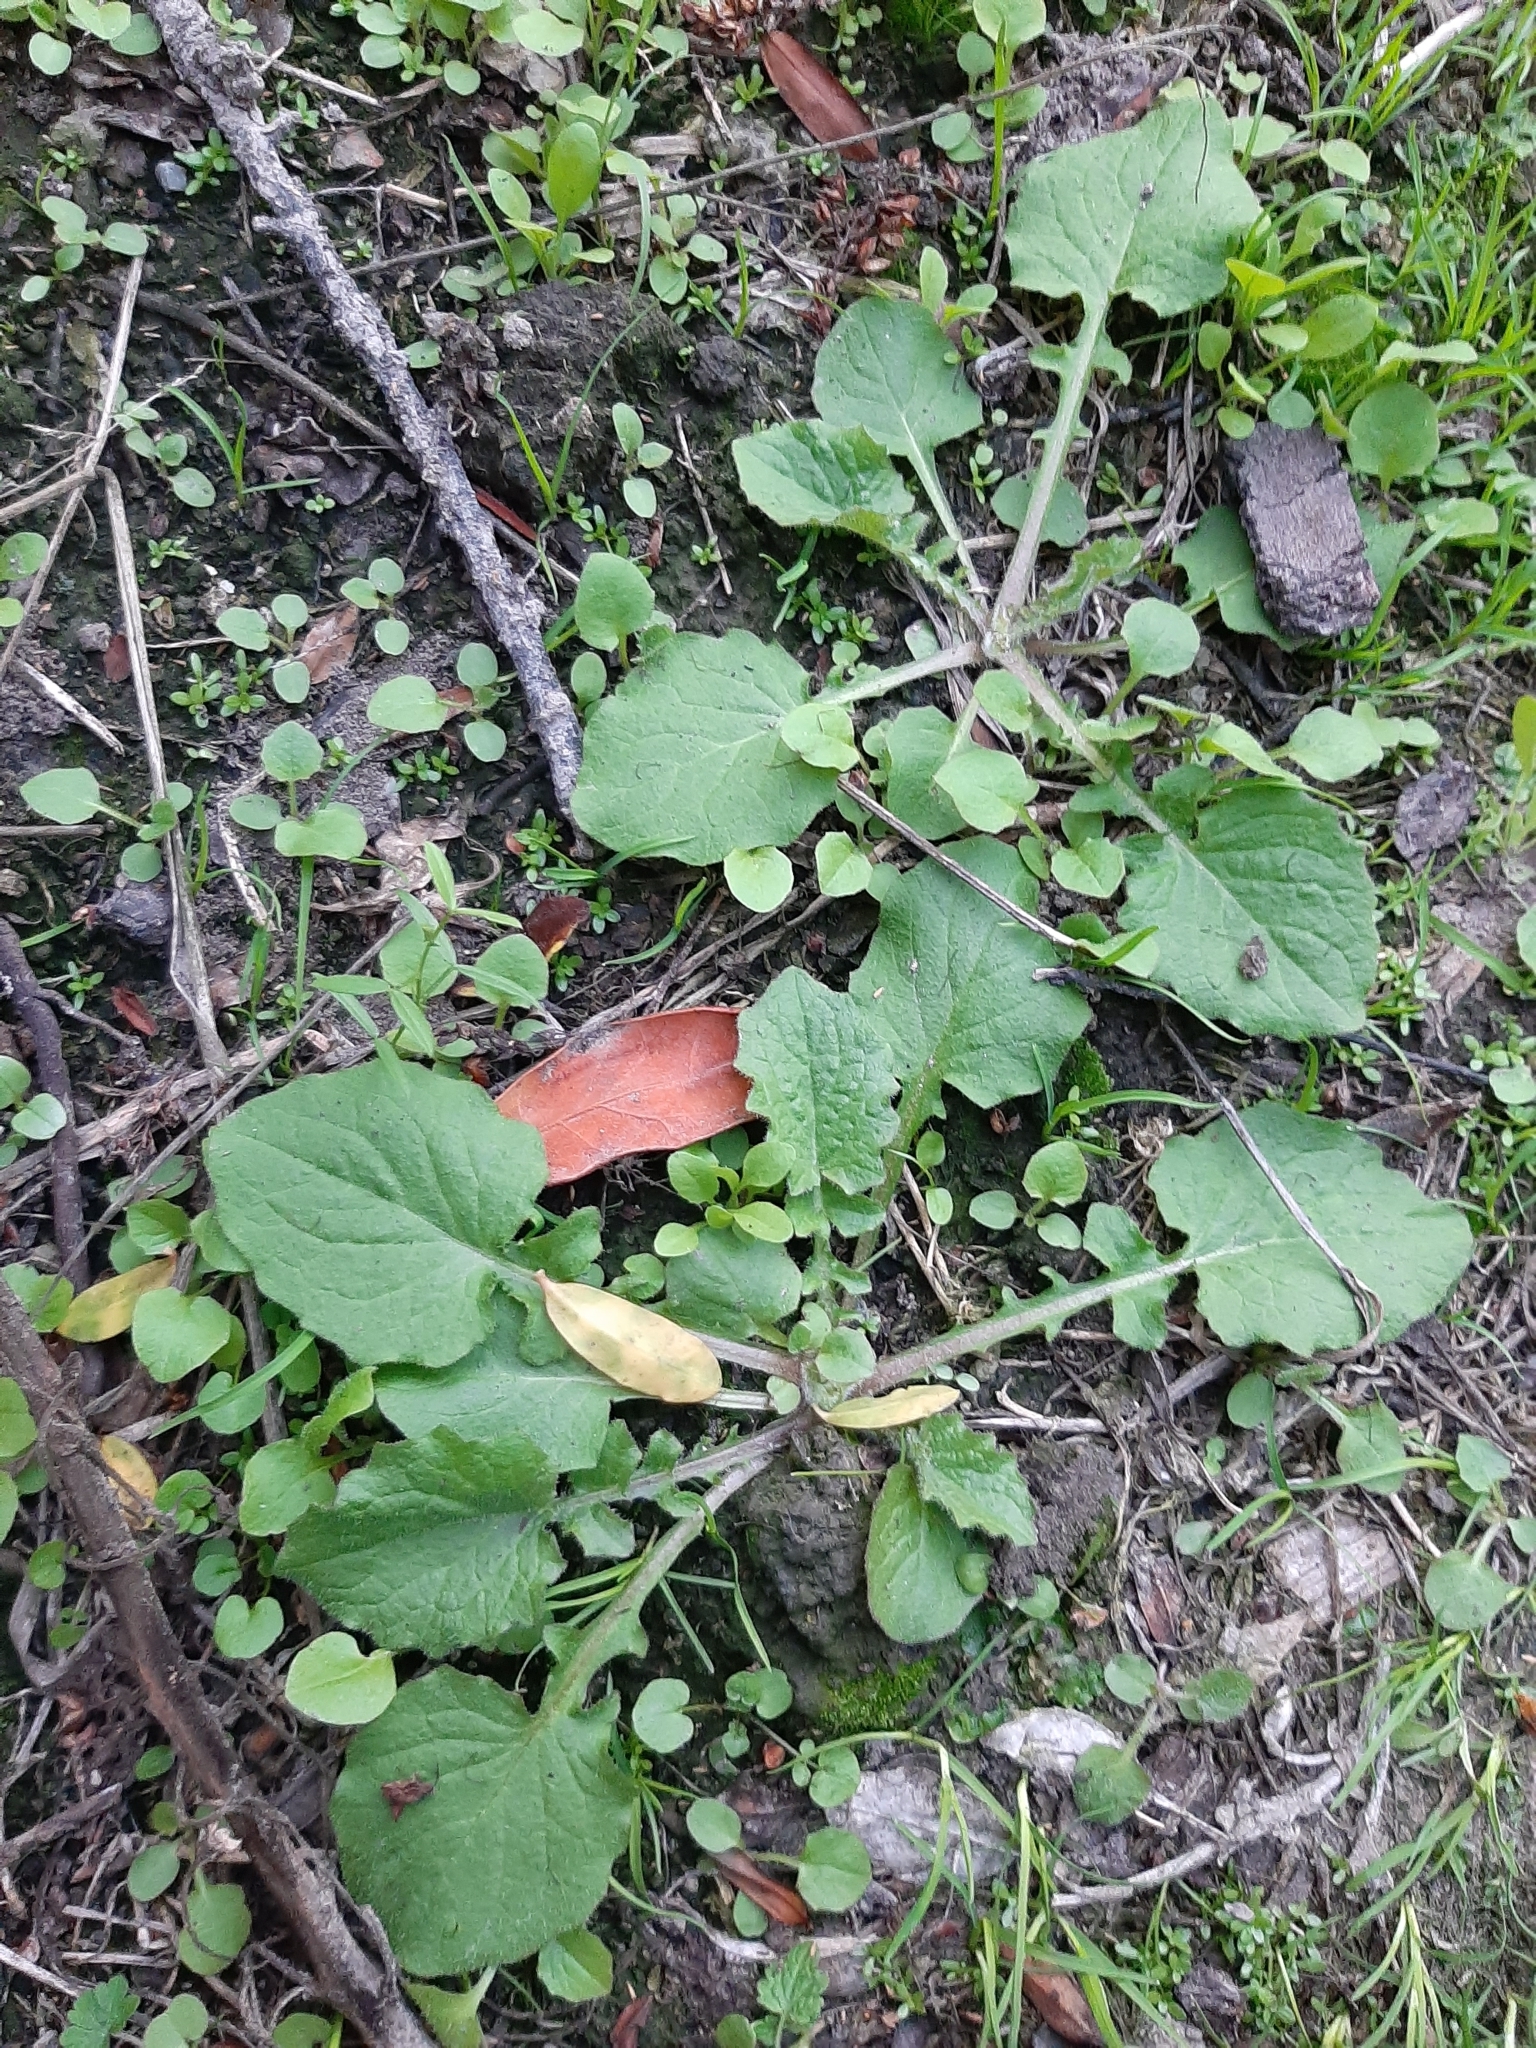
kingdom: Plantae
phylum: Tracheophyta
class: Magnoliopsida
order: Asterales
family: Asteraceae
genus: Lapsana
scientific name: Lapsana communis
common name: Nipplewort
